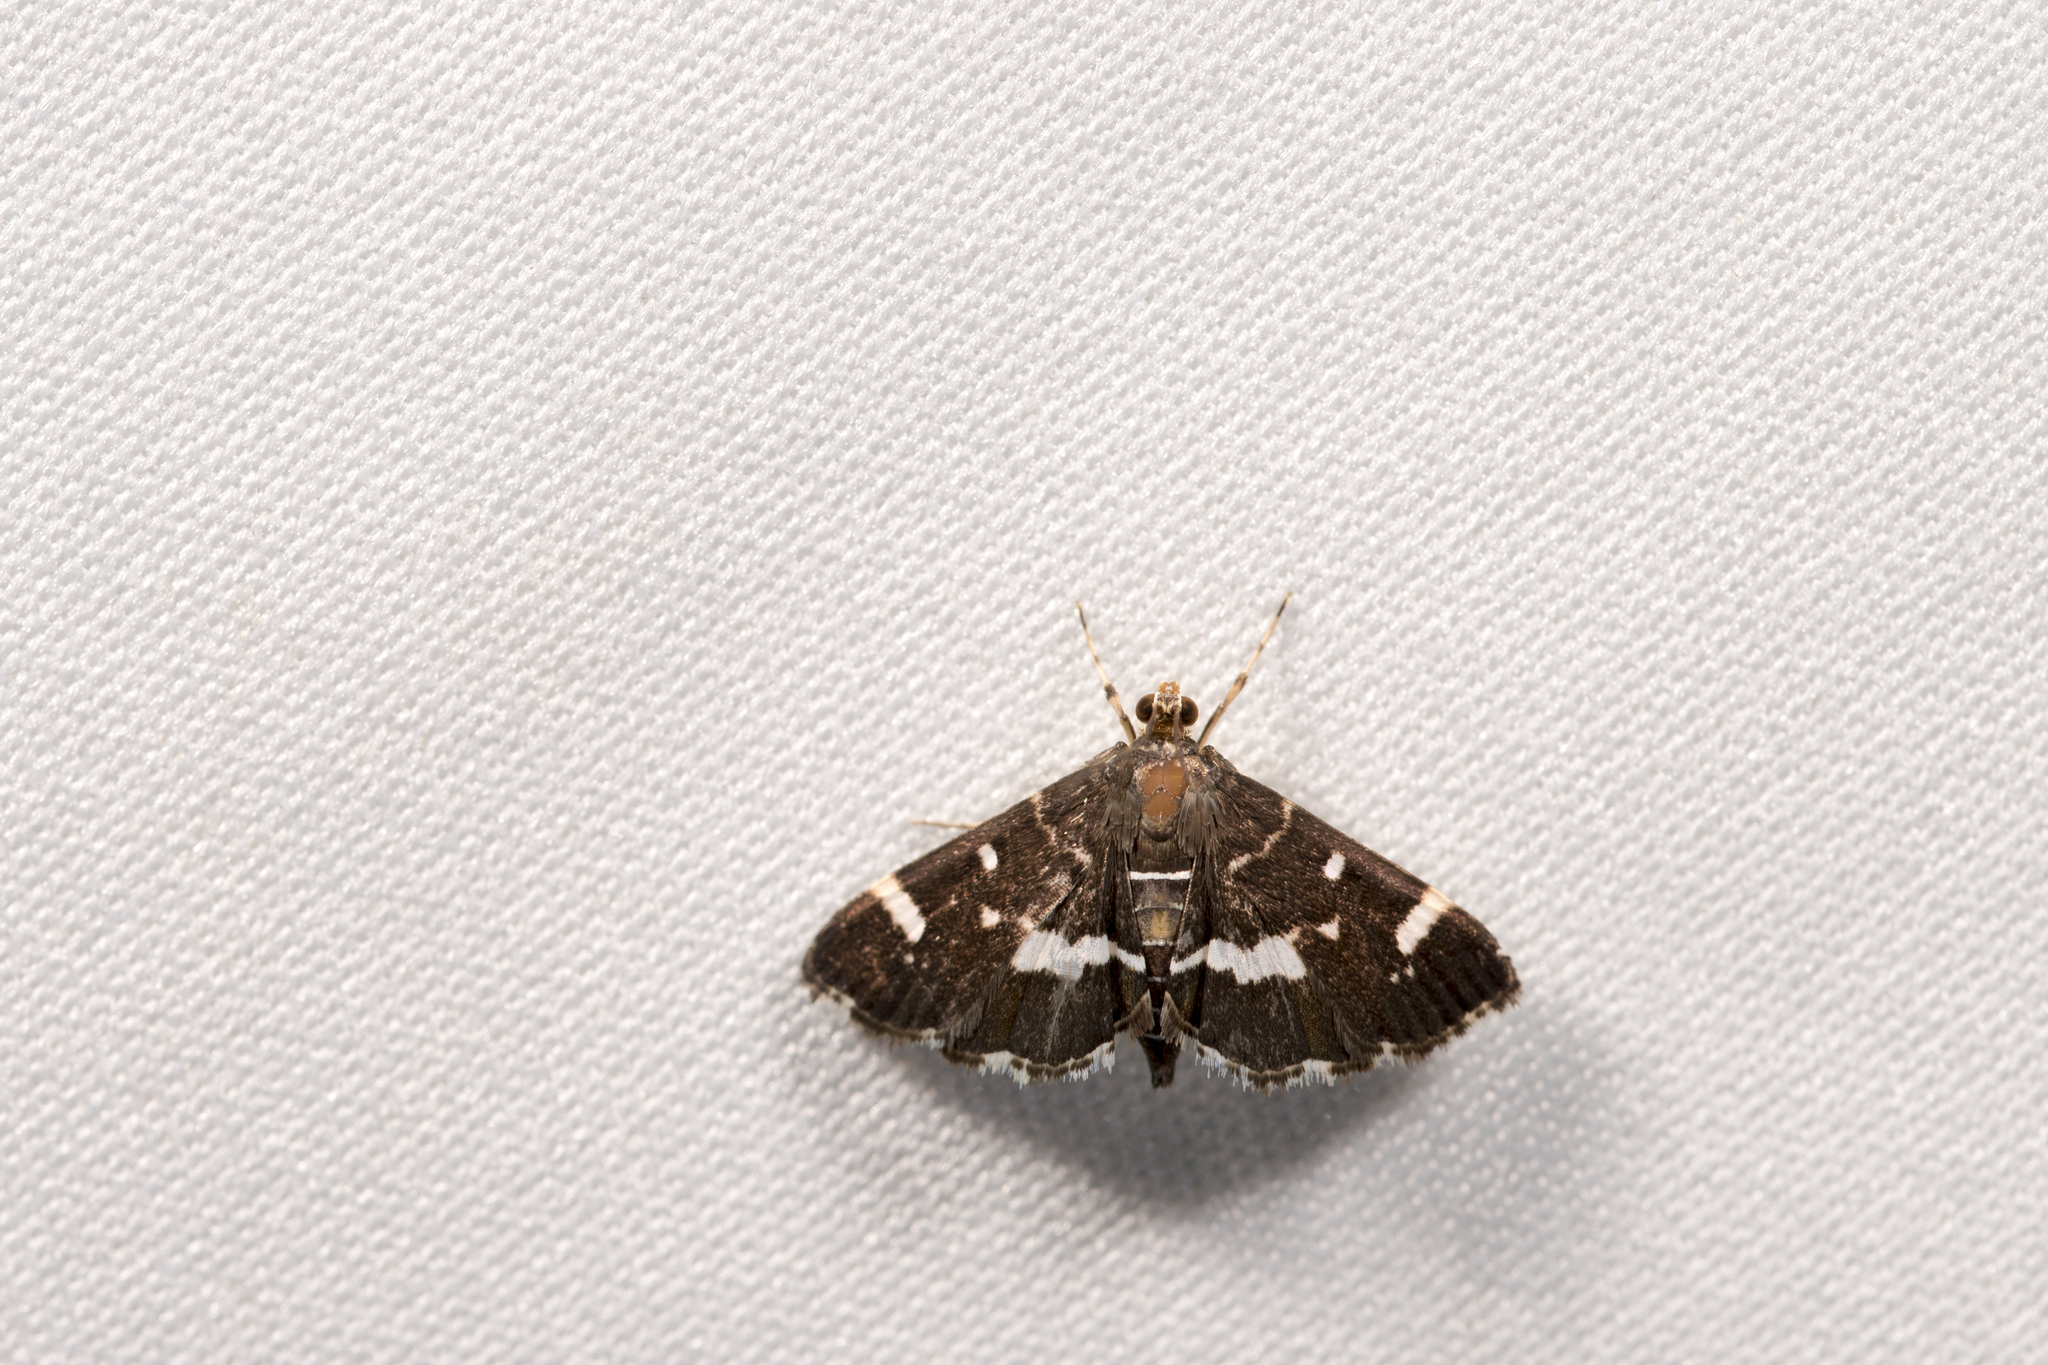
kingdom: Animalia
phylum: Arthropoda
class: Insecta
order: Lepidoptera
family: Crambidae
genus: Hymenia
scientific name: Hymenia perspectalis
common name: Spotted beet webworm
